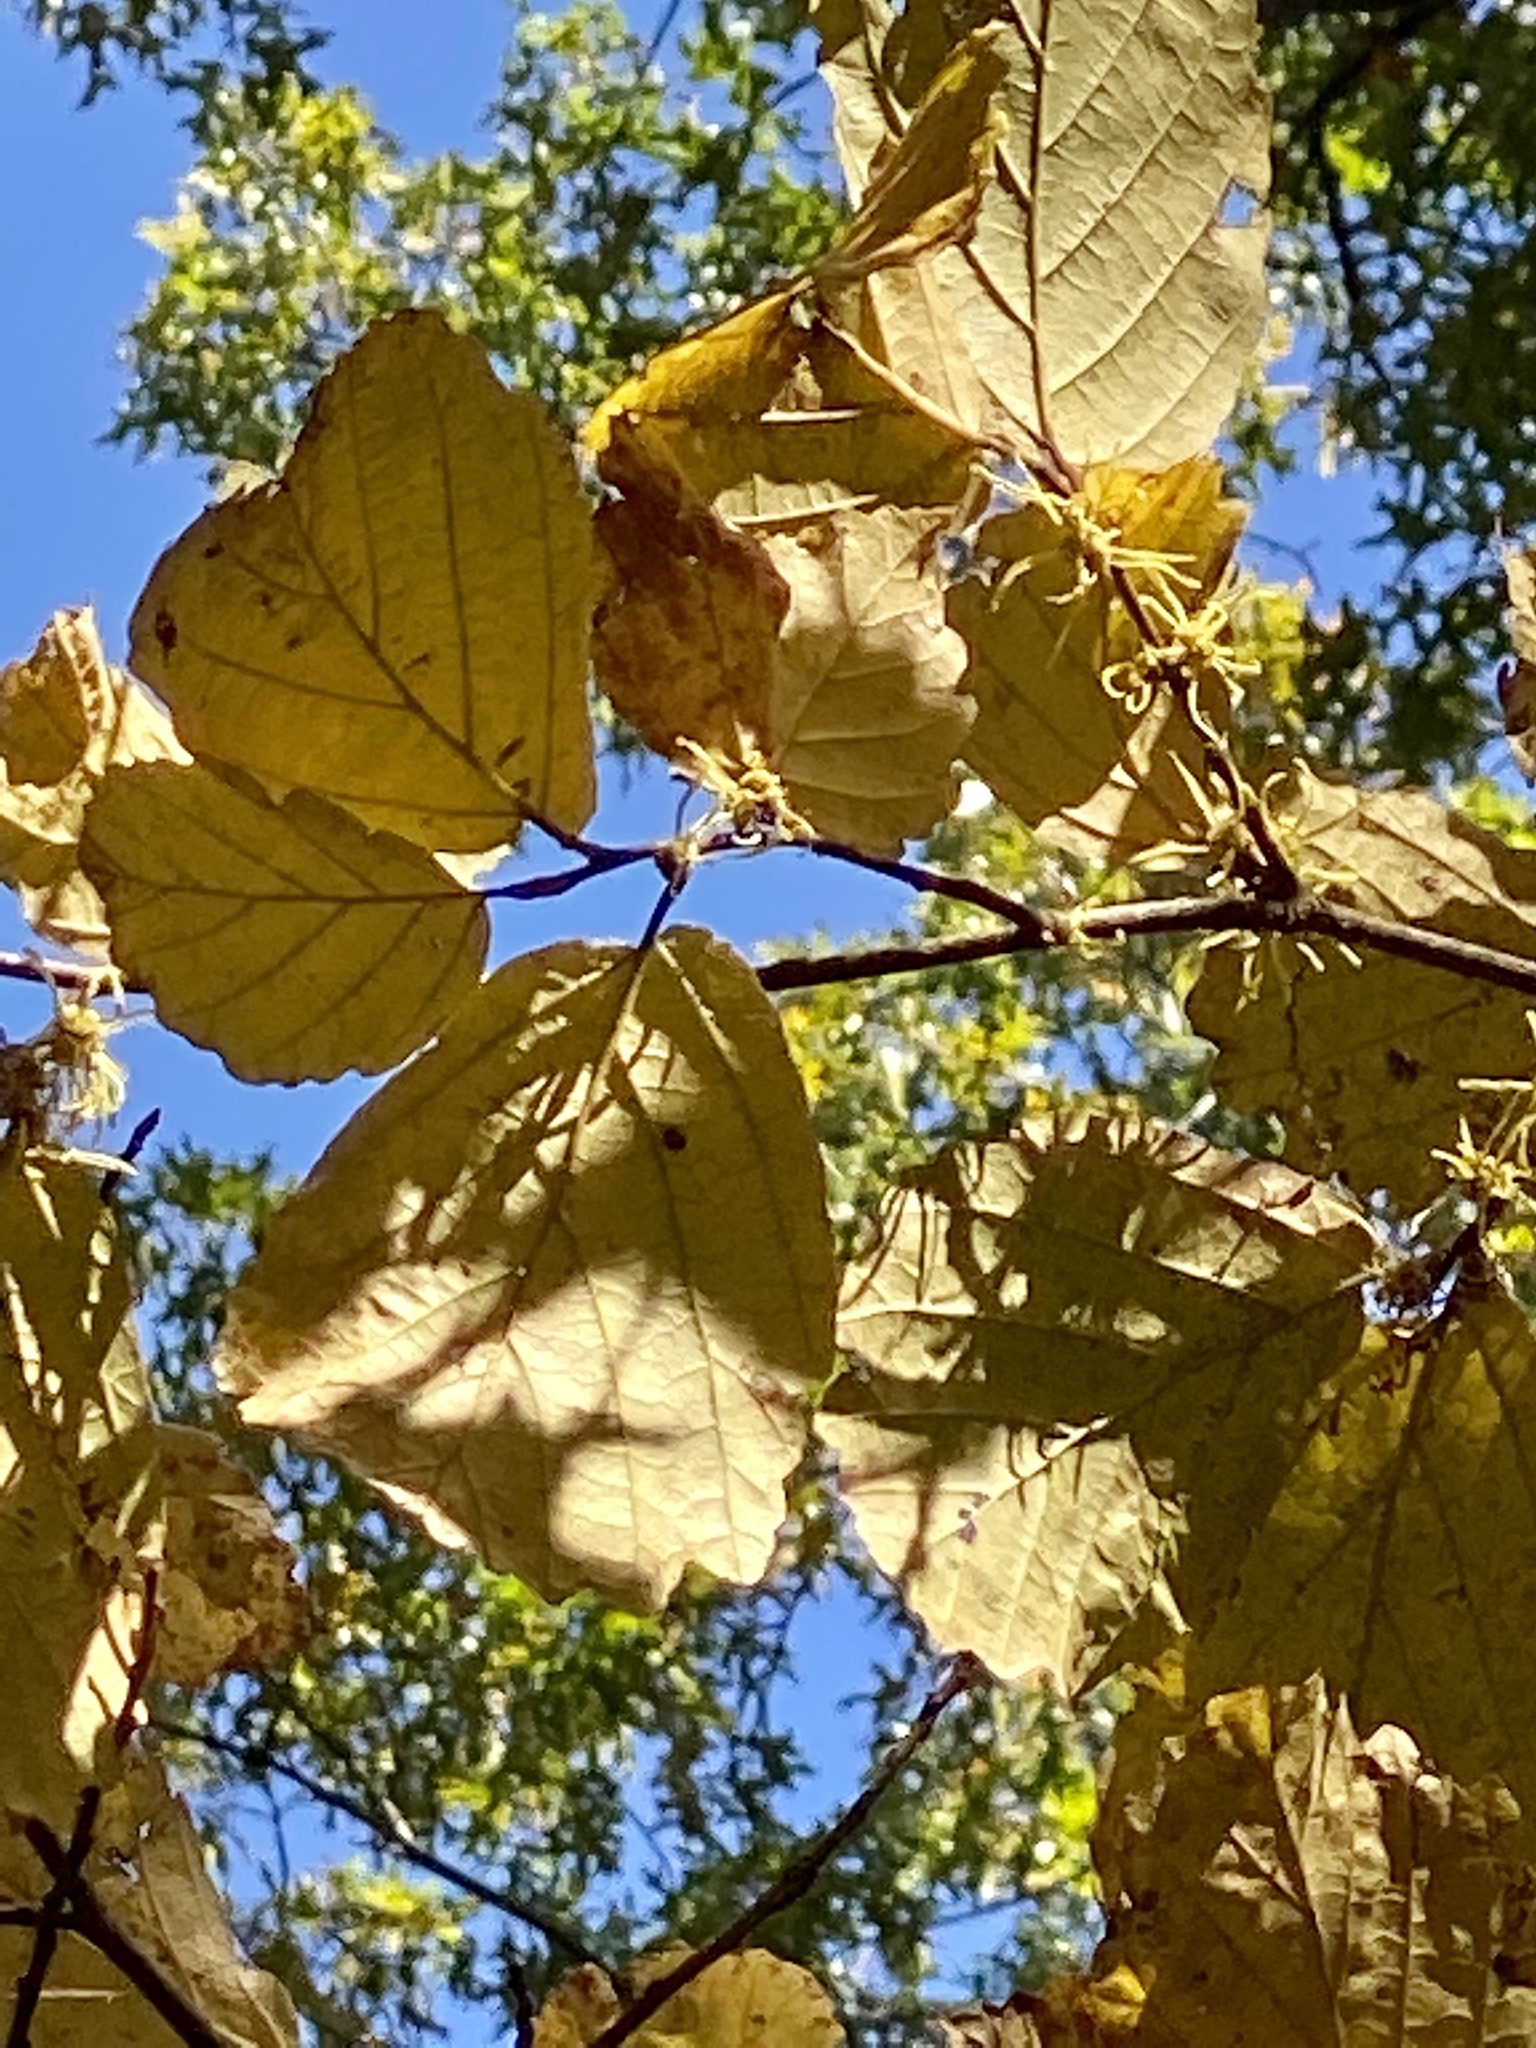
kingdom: Plantae
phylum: Tracheophyta
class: Magnoliopsida
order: Saxifragales
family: Hamamelidaceae
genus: Hamamelis
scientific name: Hamamelis virginiana
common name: Witch-hazel
